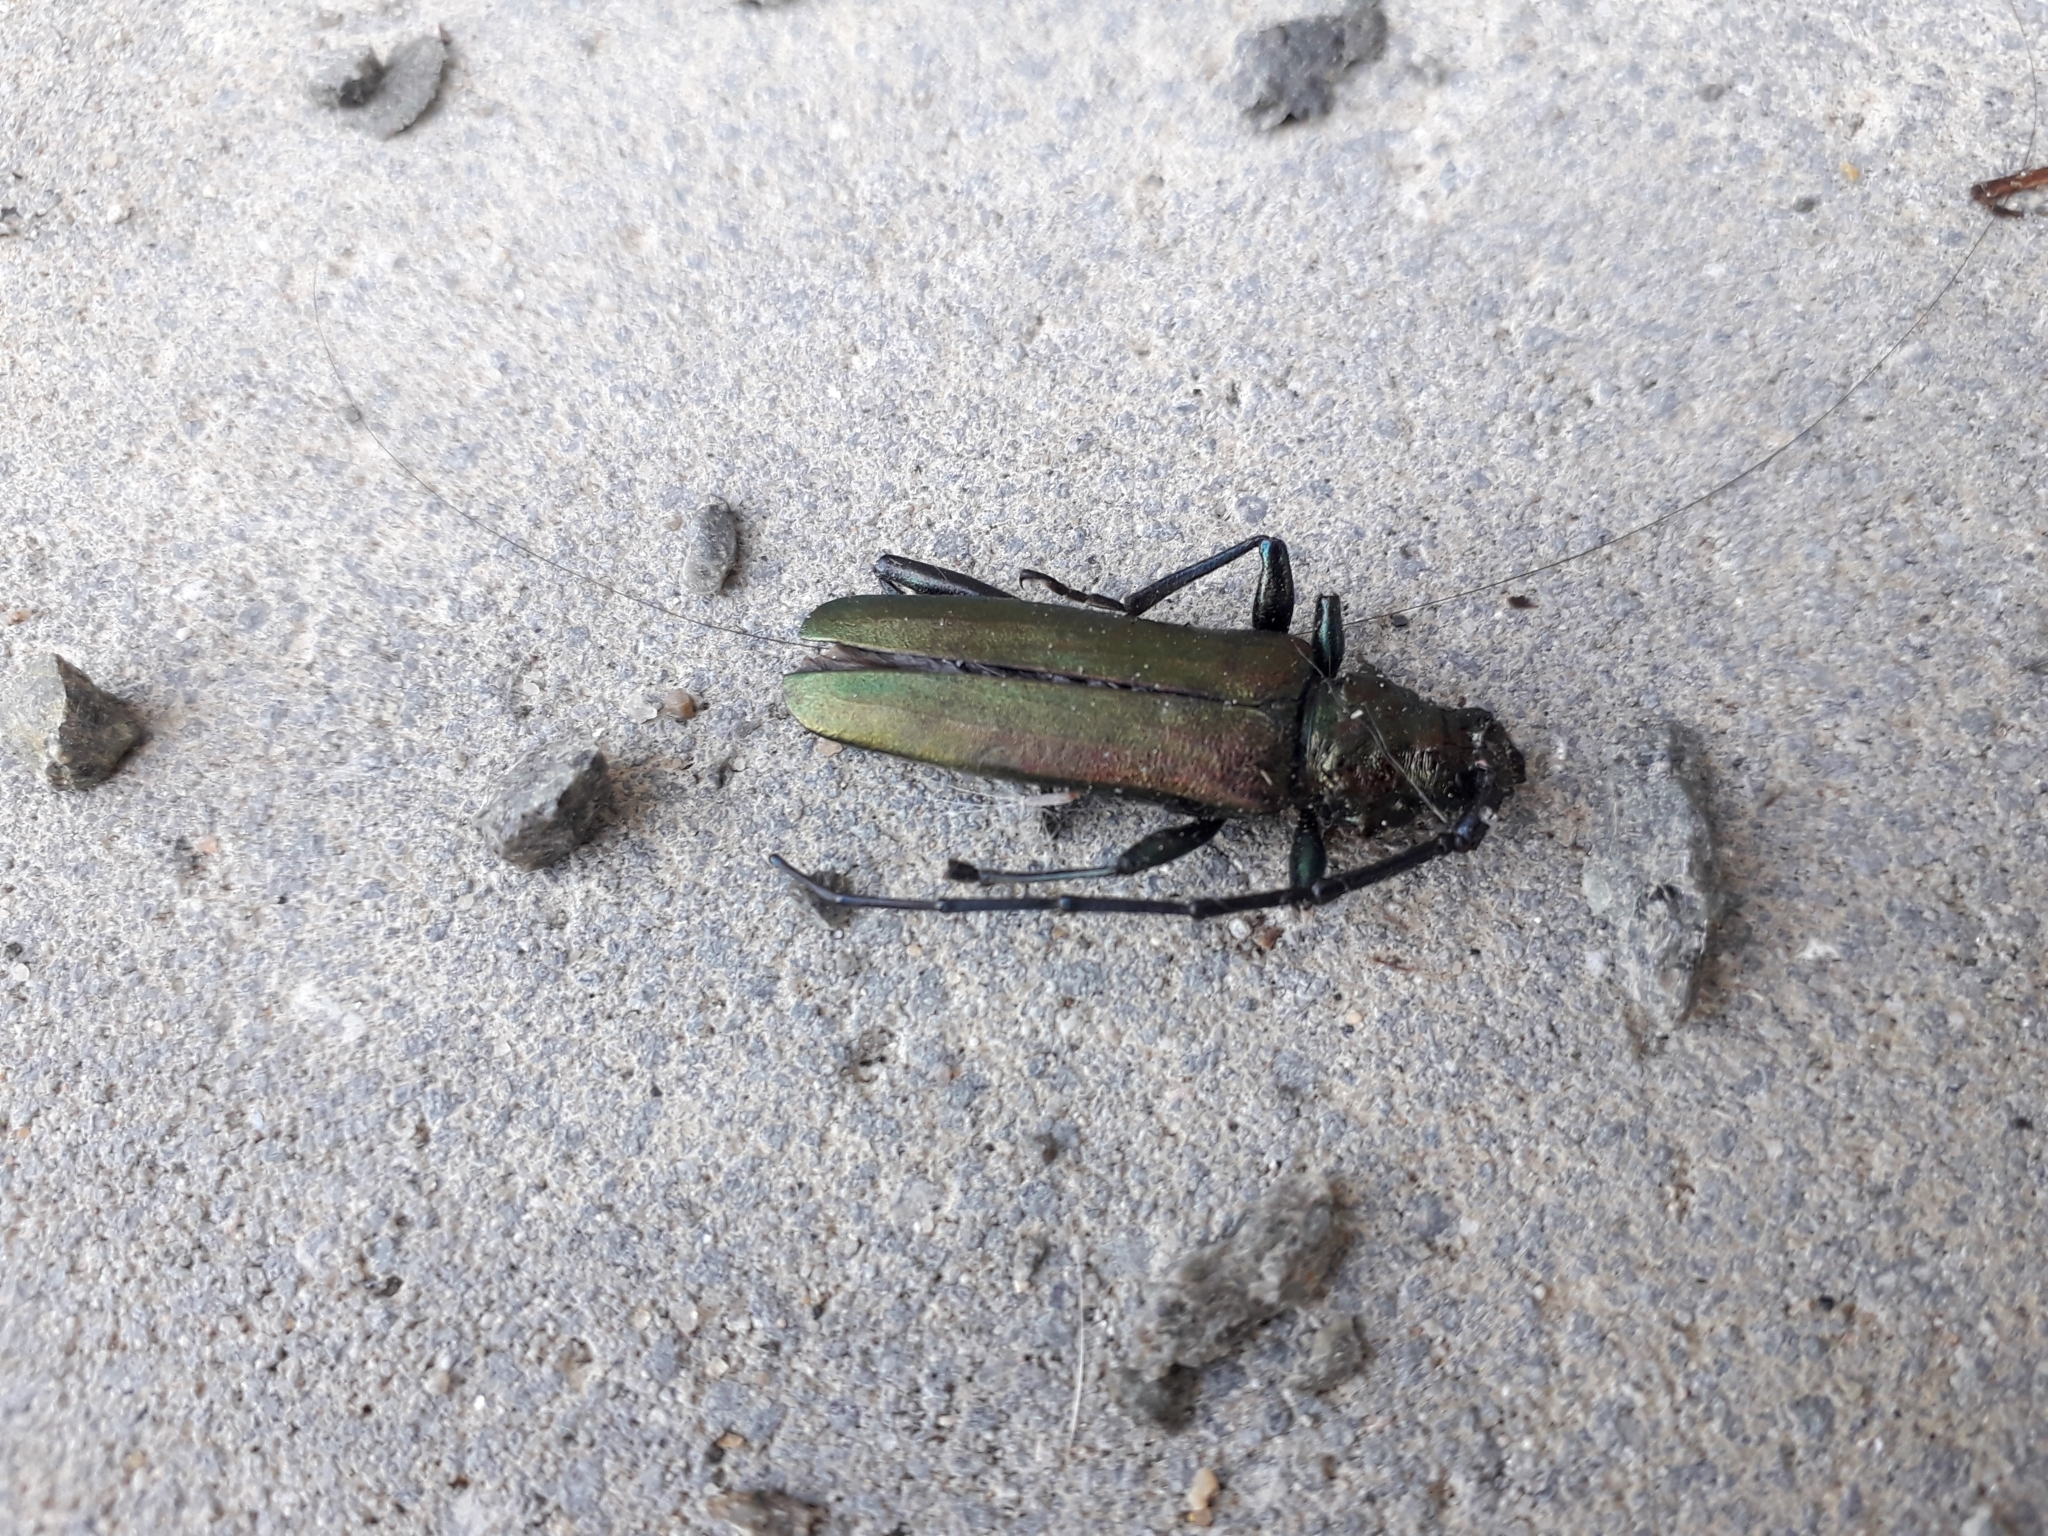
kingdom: Animalia
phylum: Arthropoda
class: Insecta
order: Coleoptera
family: Cerambycidae
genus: Aromia
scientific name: Aromia moschata
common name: Musk beetle
